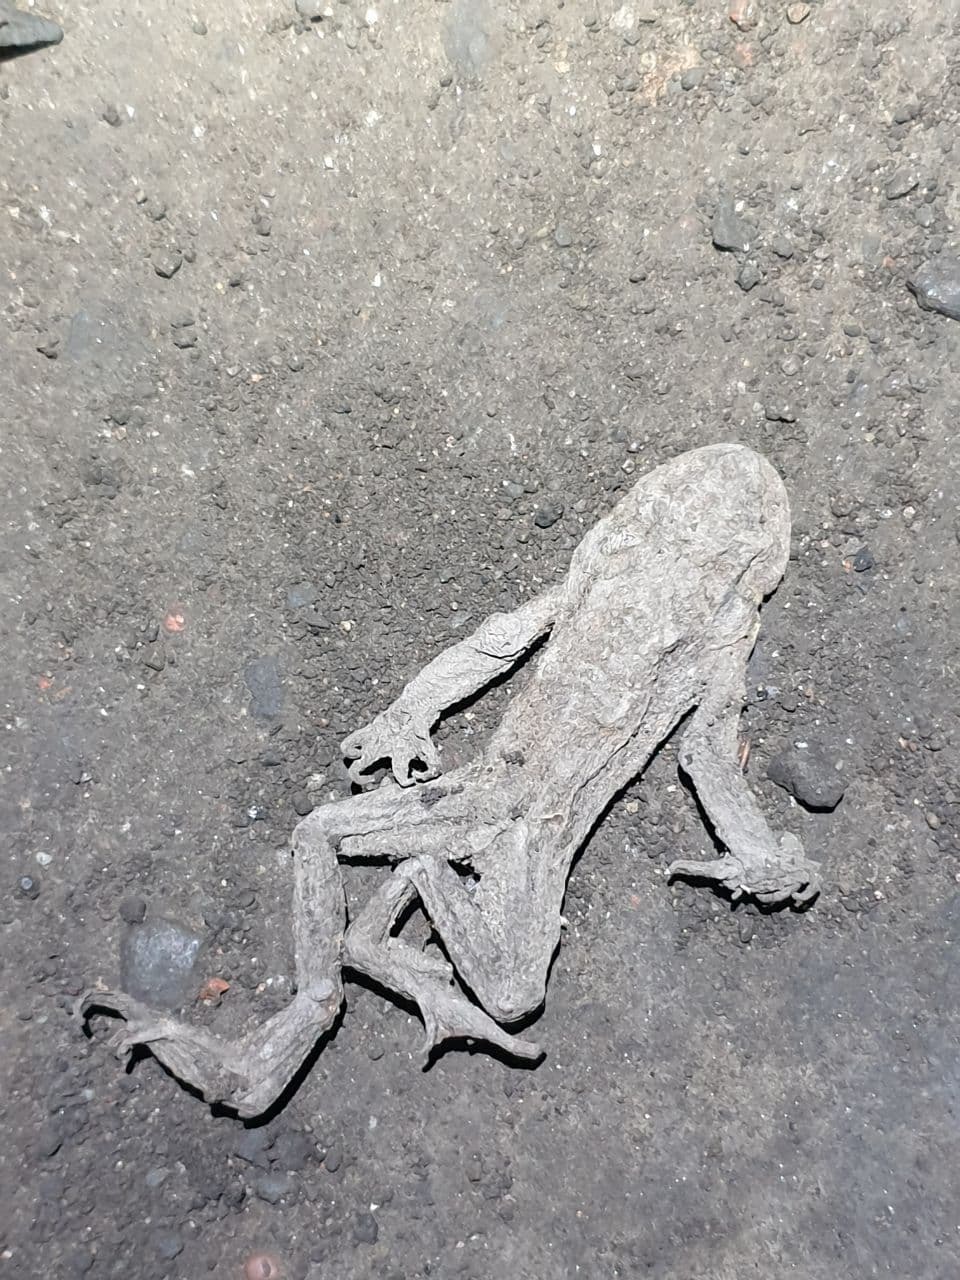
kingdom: Animalia
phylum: Chordata
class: Amphibia
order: Anura
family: Bufonidae
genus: Bufo
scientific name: Bufo bufo
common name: Common toad
